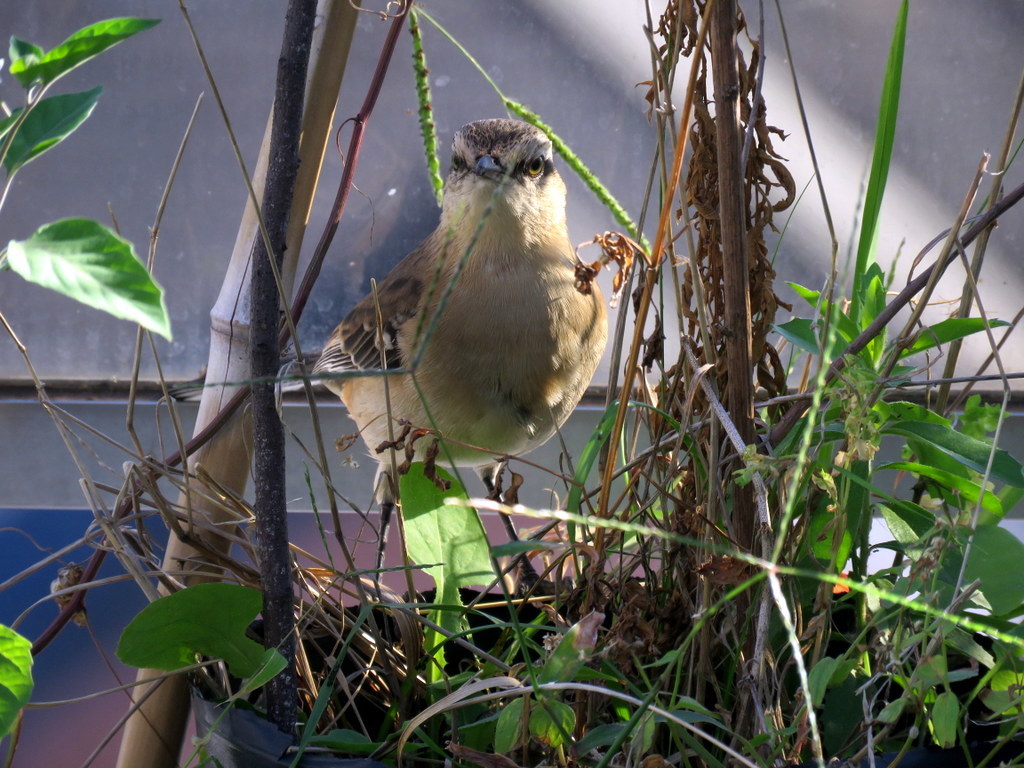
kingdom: Animalia
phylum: Chordata
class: Aves
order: Passeriformes
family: Mimidae
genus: Mimus
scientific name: Mimus saturninus
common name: Chalk-browed mockingbird
